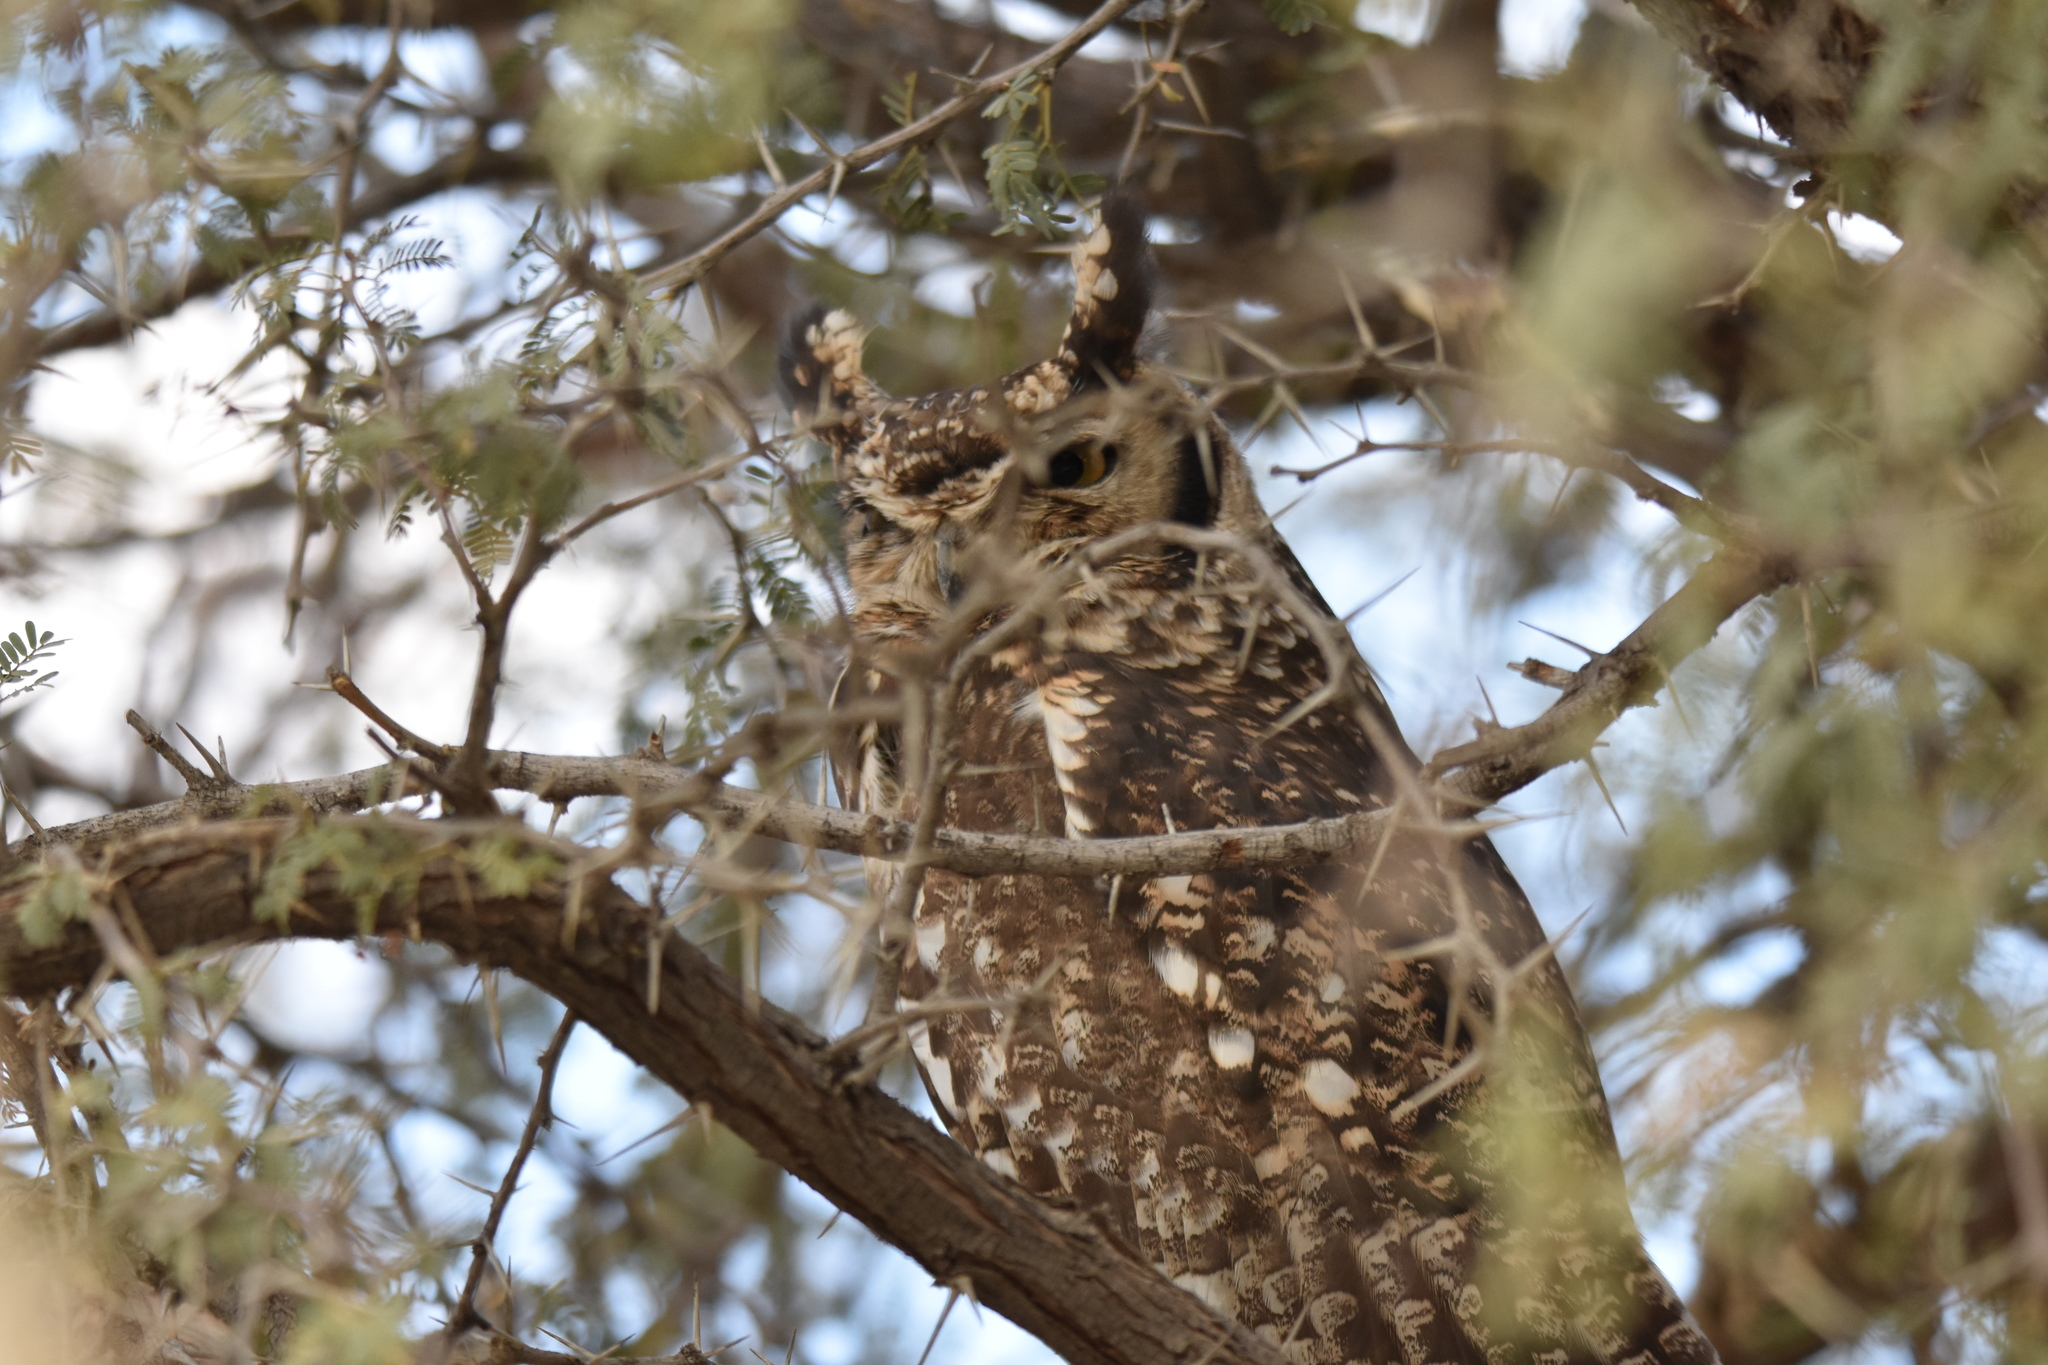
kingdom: Animalia
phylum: Chordata
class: Aves
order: Strigiformes
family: Strigidae
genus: Bubo
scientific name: Bubo africanus
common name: Spotted eagle-owl
